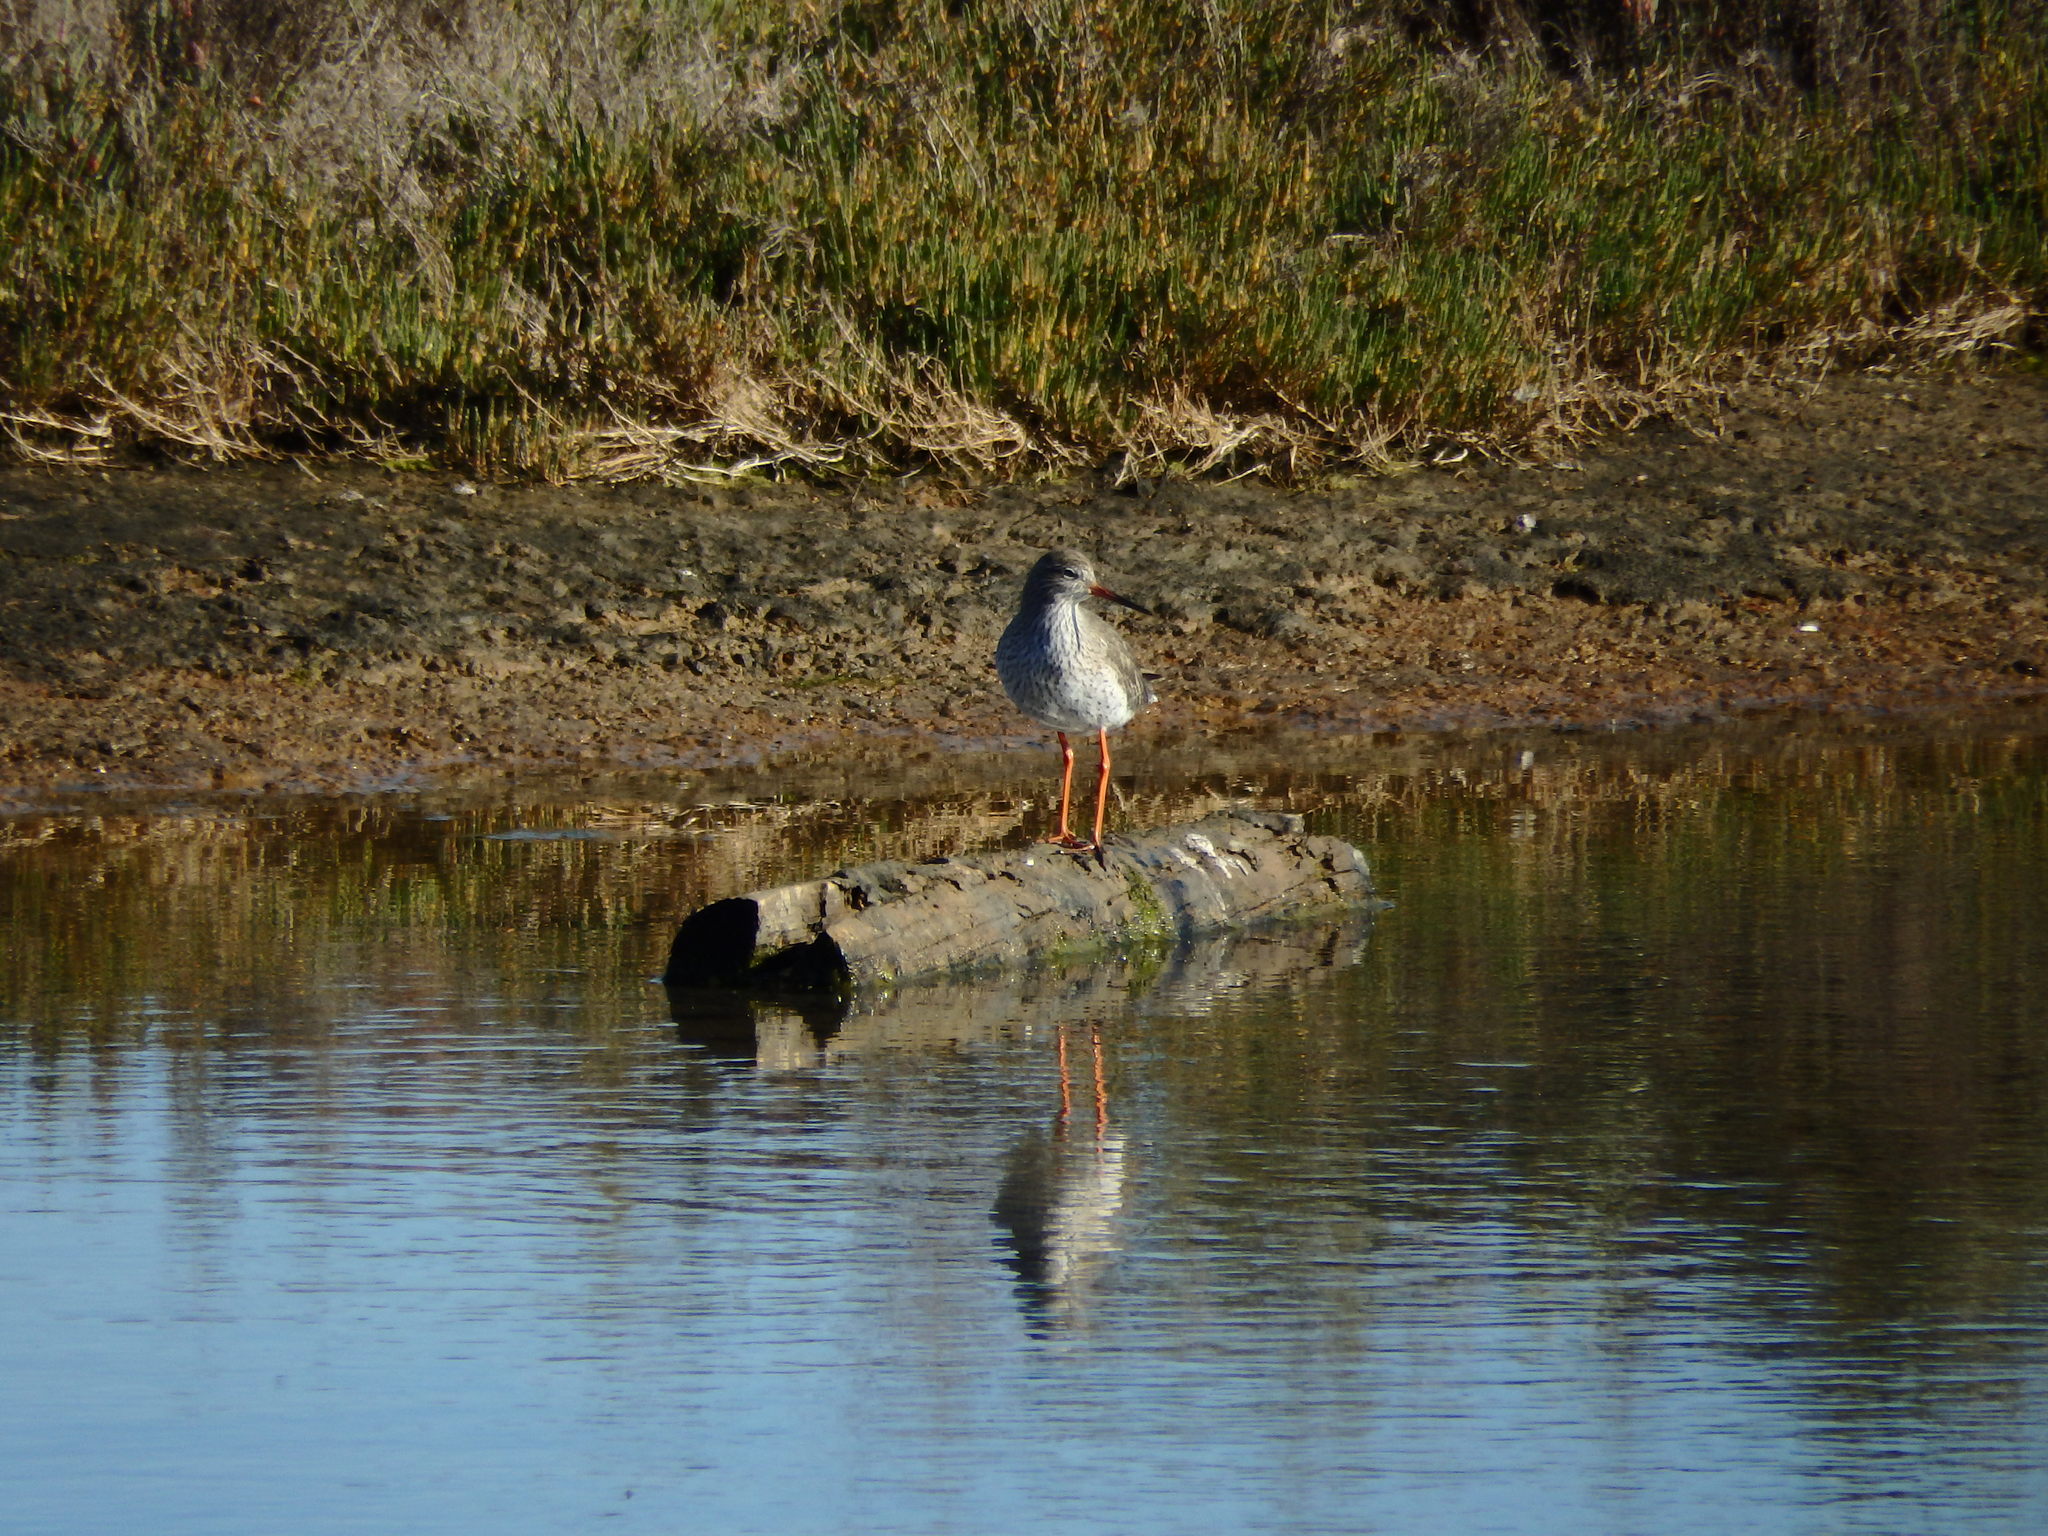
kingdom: Animalia
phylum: Chordata
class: Aves
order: Charadriiformes
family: Scolopacidae
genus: Tringa
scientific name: Tringa totanus
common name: Common redshank
